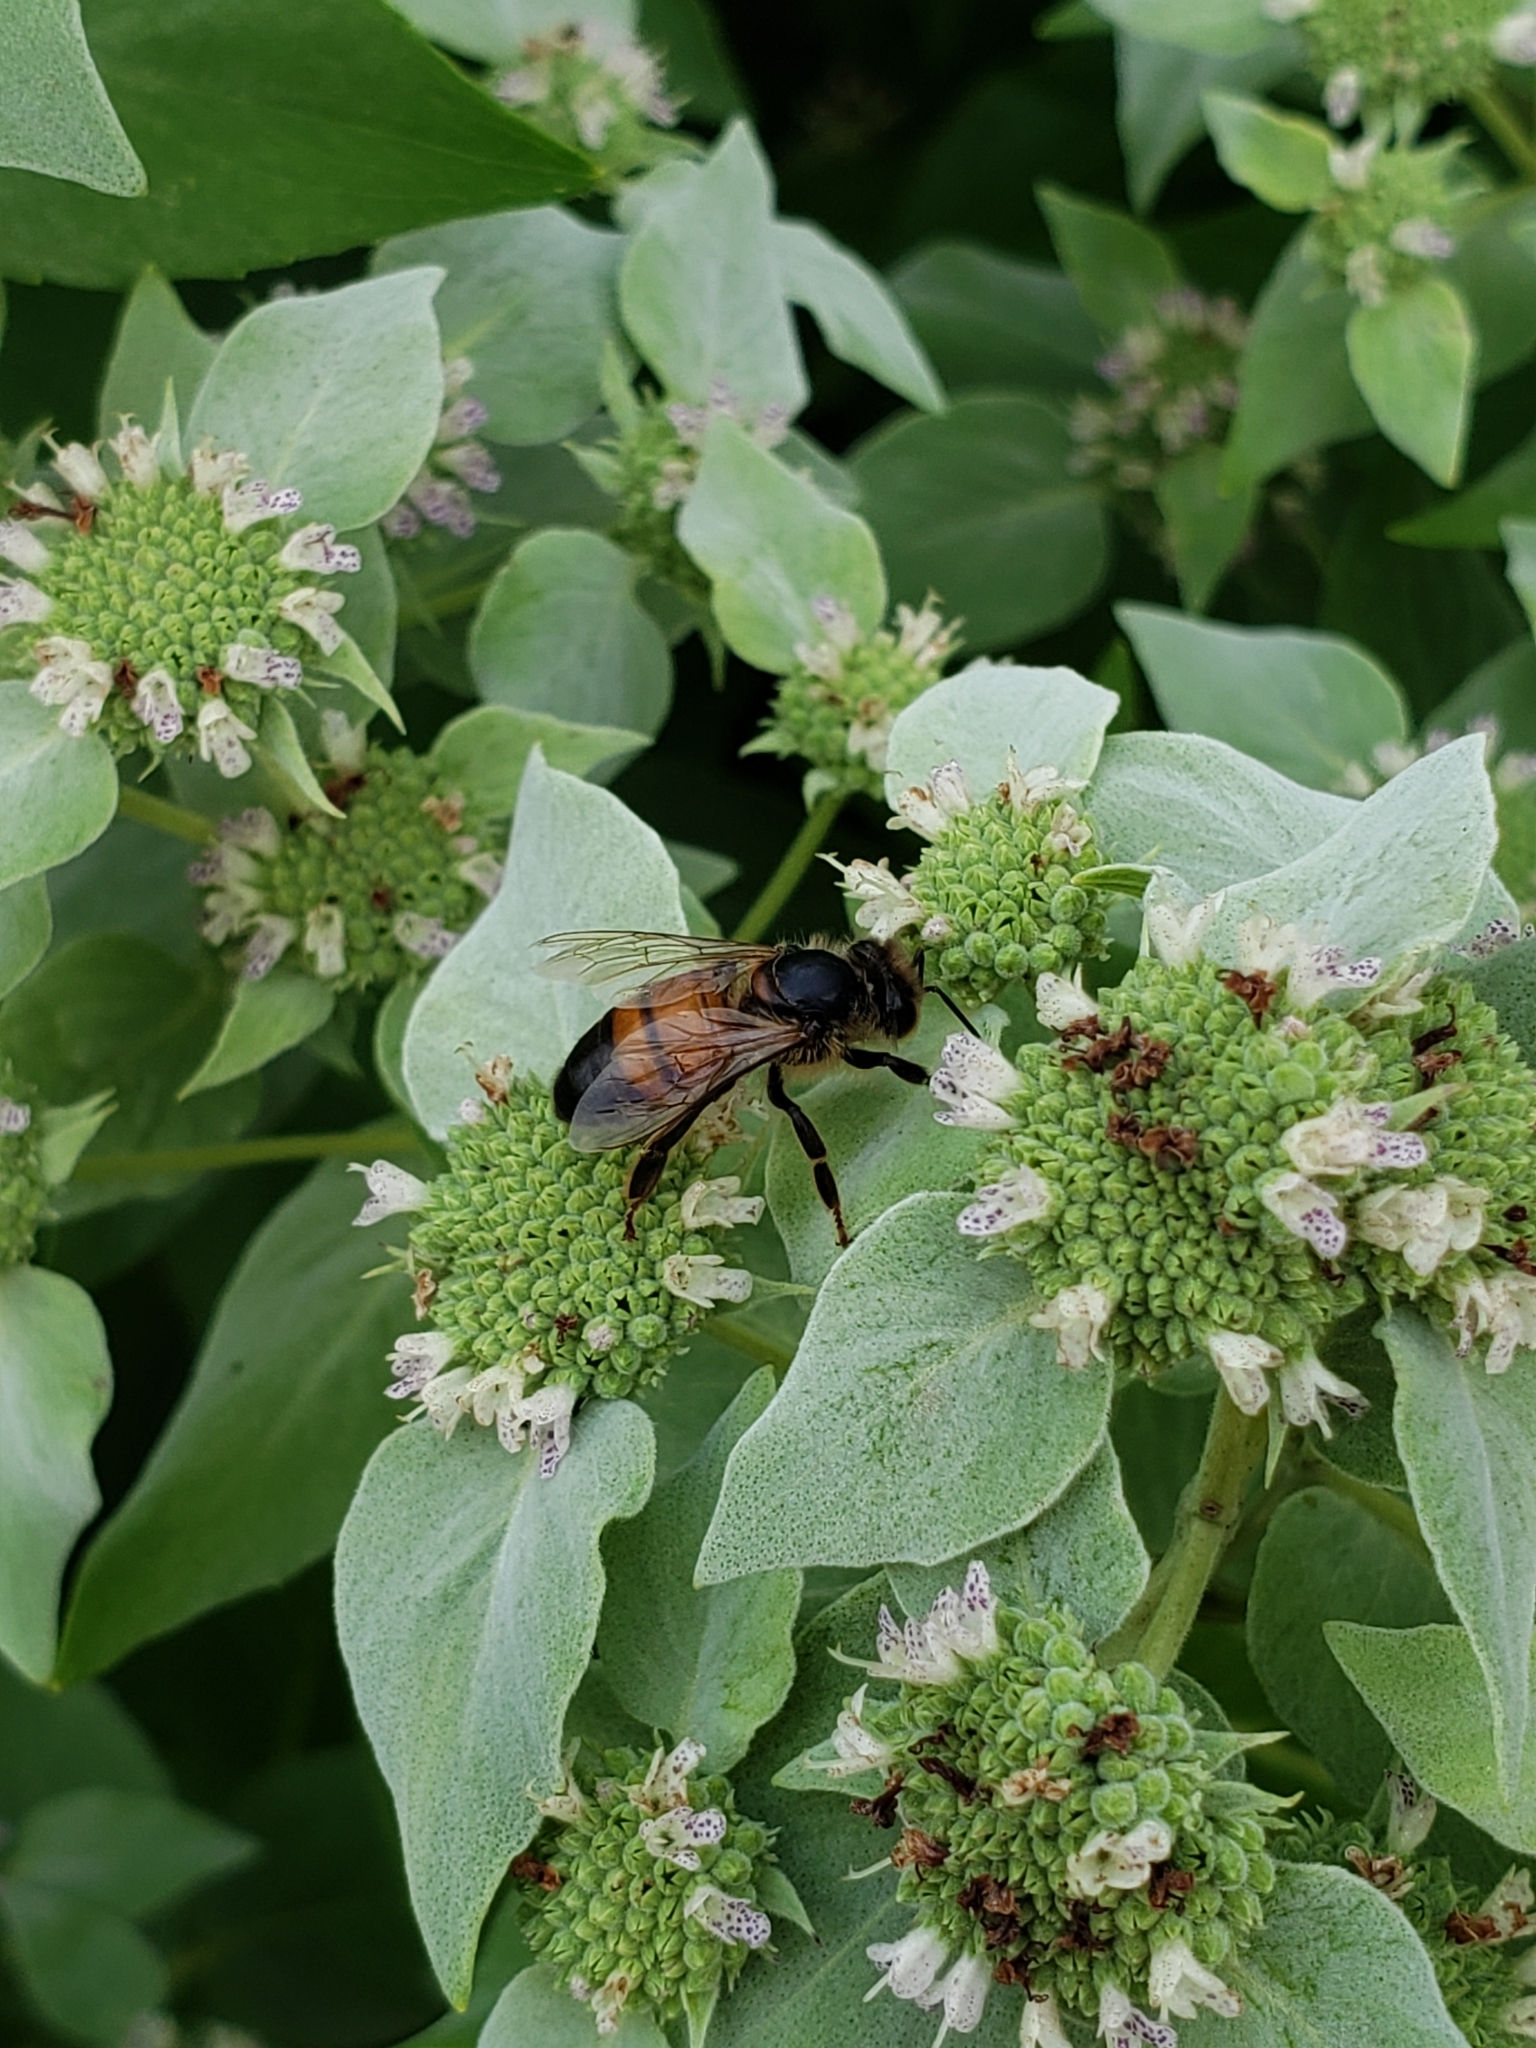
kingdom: Animalia
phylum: Arthropoda
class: Insecta
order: Hymenoptera
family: Apidae
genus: Apis
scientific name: Apis mellifera
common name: Honey bee
